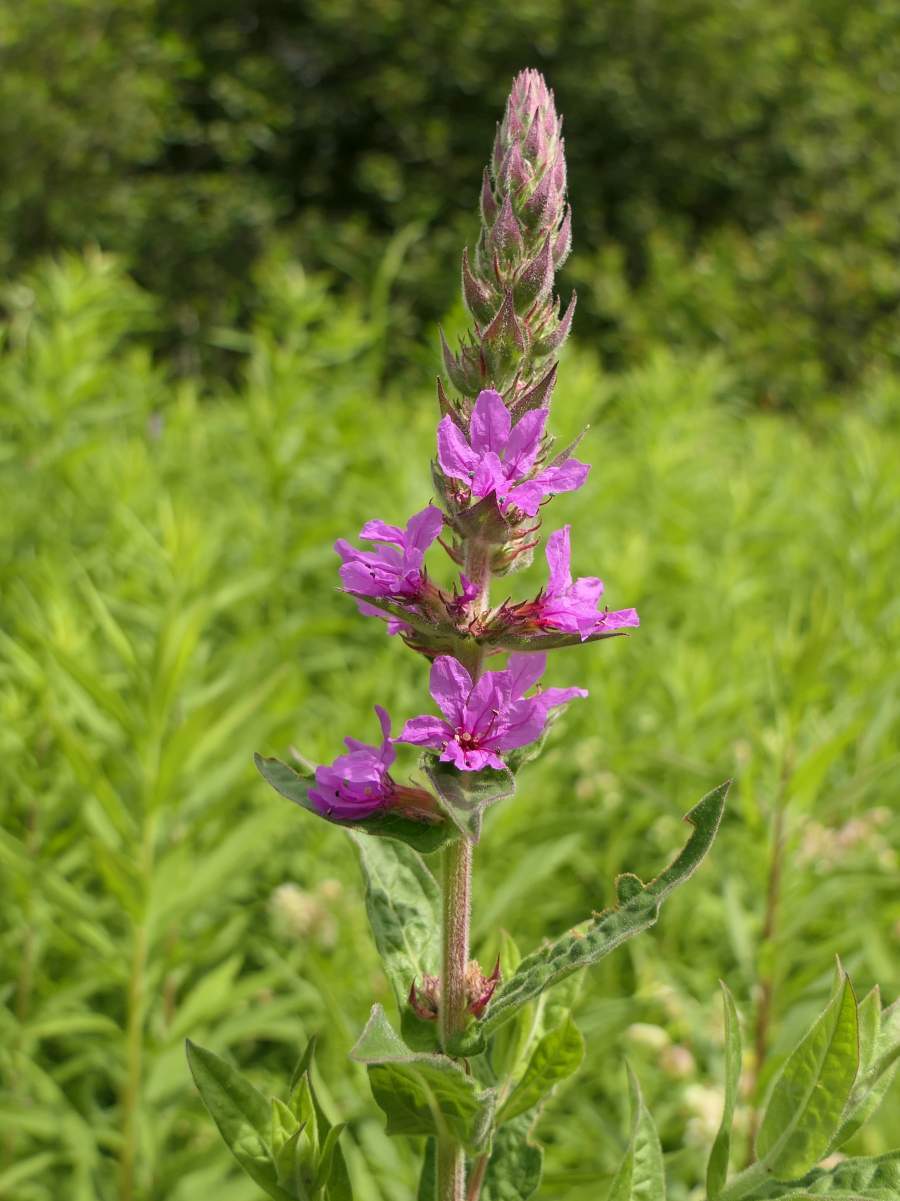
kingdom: Plantae
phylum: Tracheophyta
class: Magnoliopsida
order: Myrtales
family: Lythraceae
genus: Lythrum
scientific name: Lythrum salicaria
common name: Purple loosestrife
